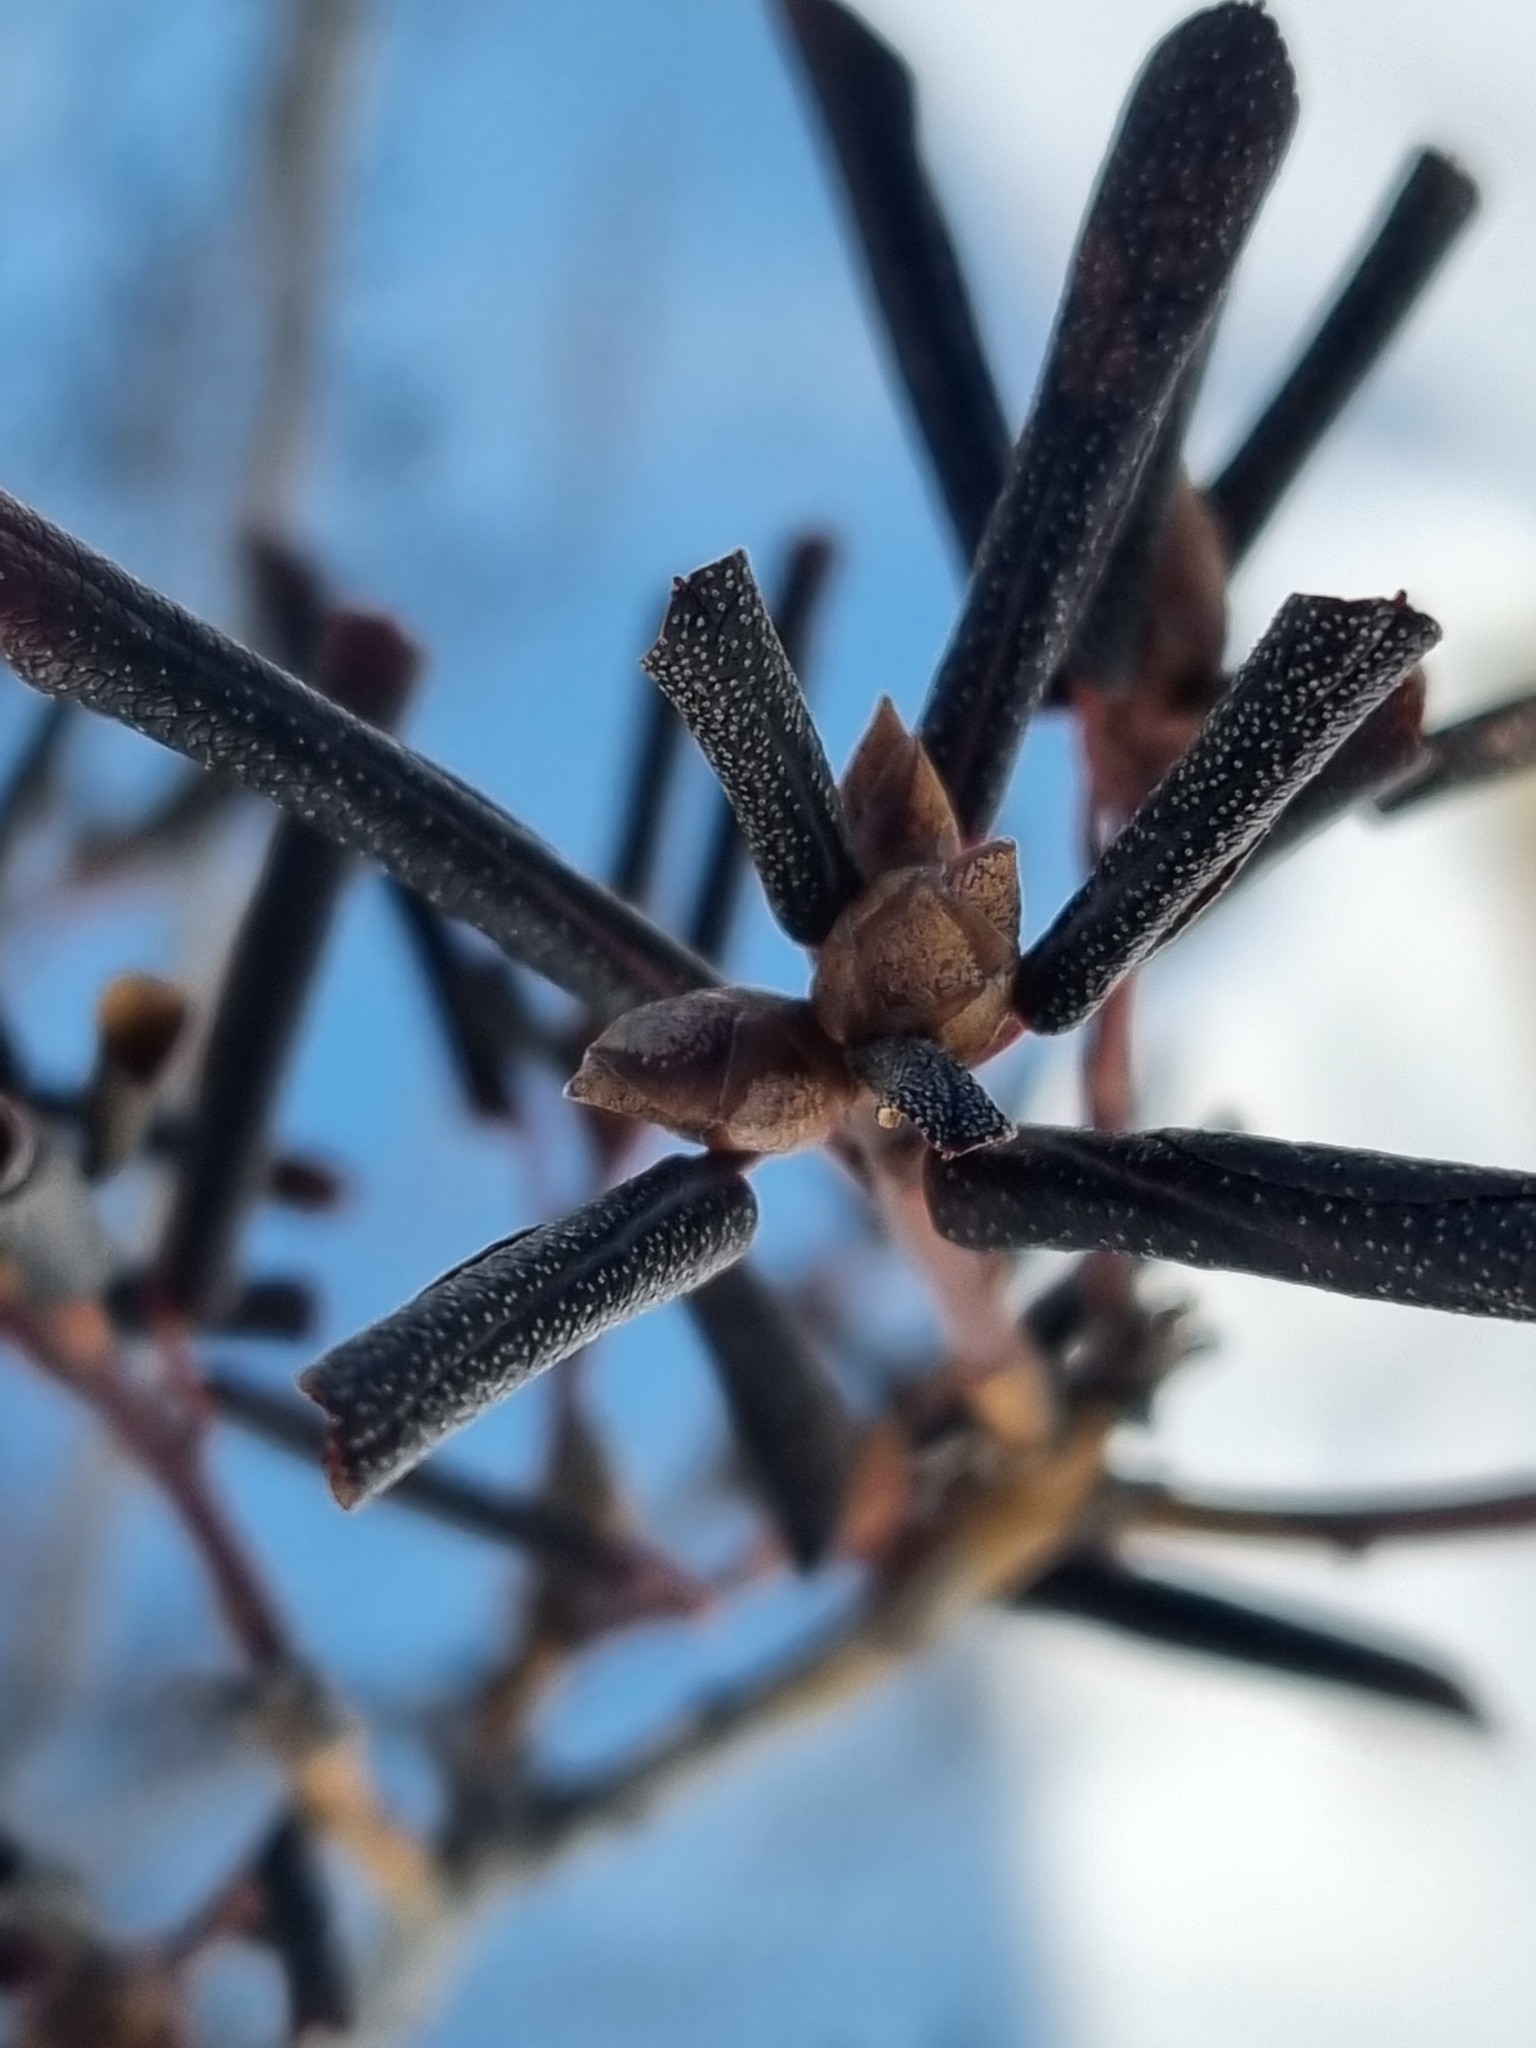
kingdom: Plantae
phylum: Tracheophyta
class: Magnoliopsida
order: Ericales
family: Ericaceae
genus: Rhododendron
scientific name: Rhododendron dauricum
